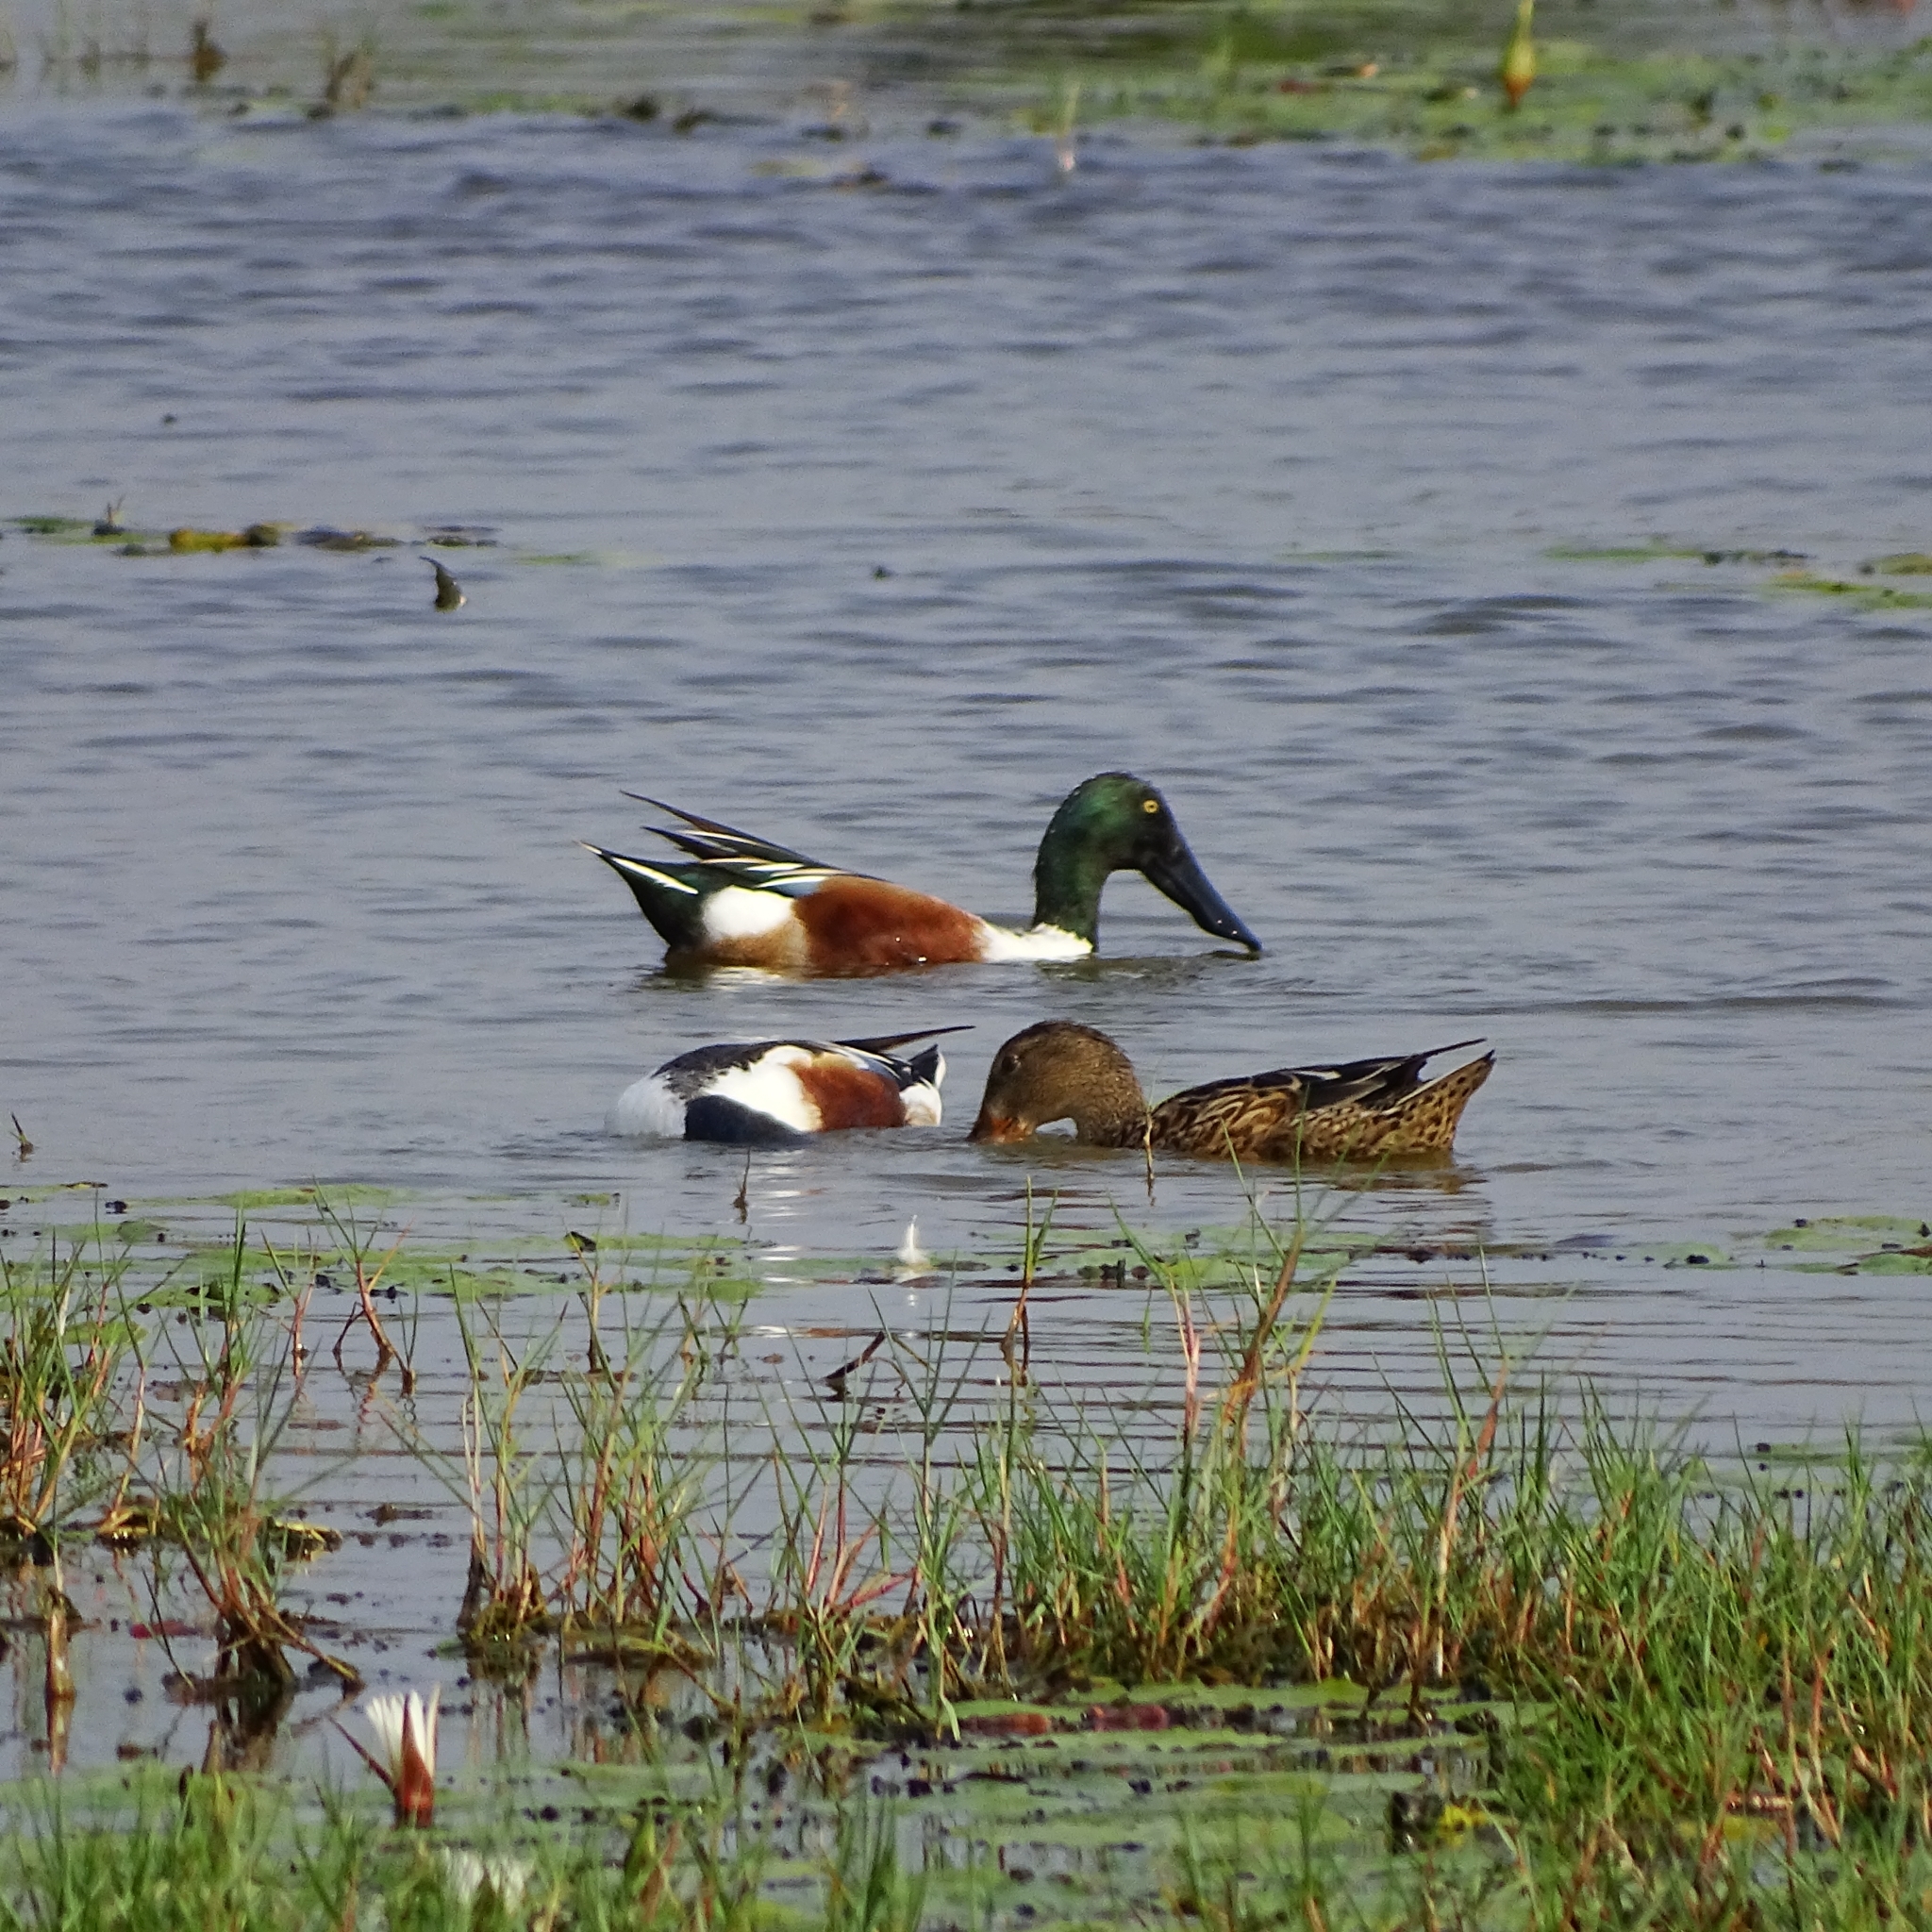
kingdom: Animalia
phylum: Chordata
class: Aves
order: Anseriformes
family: Anatidae
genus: Spatula
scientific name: Spatula clypeata
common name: Northern shoveler
